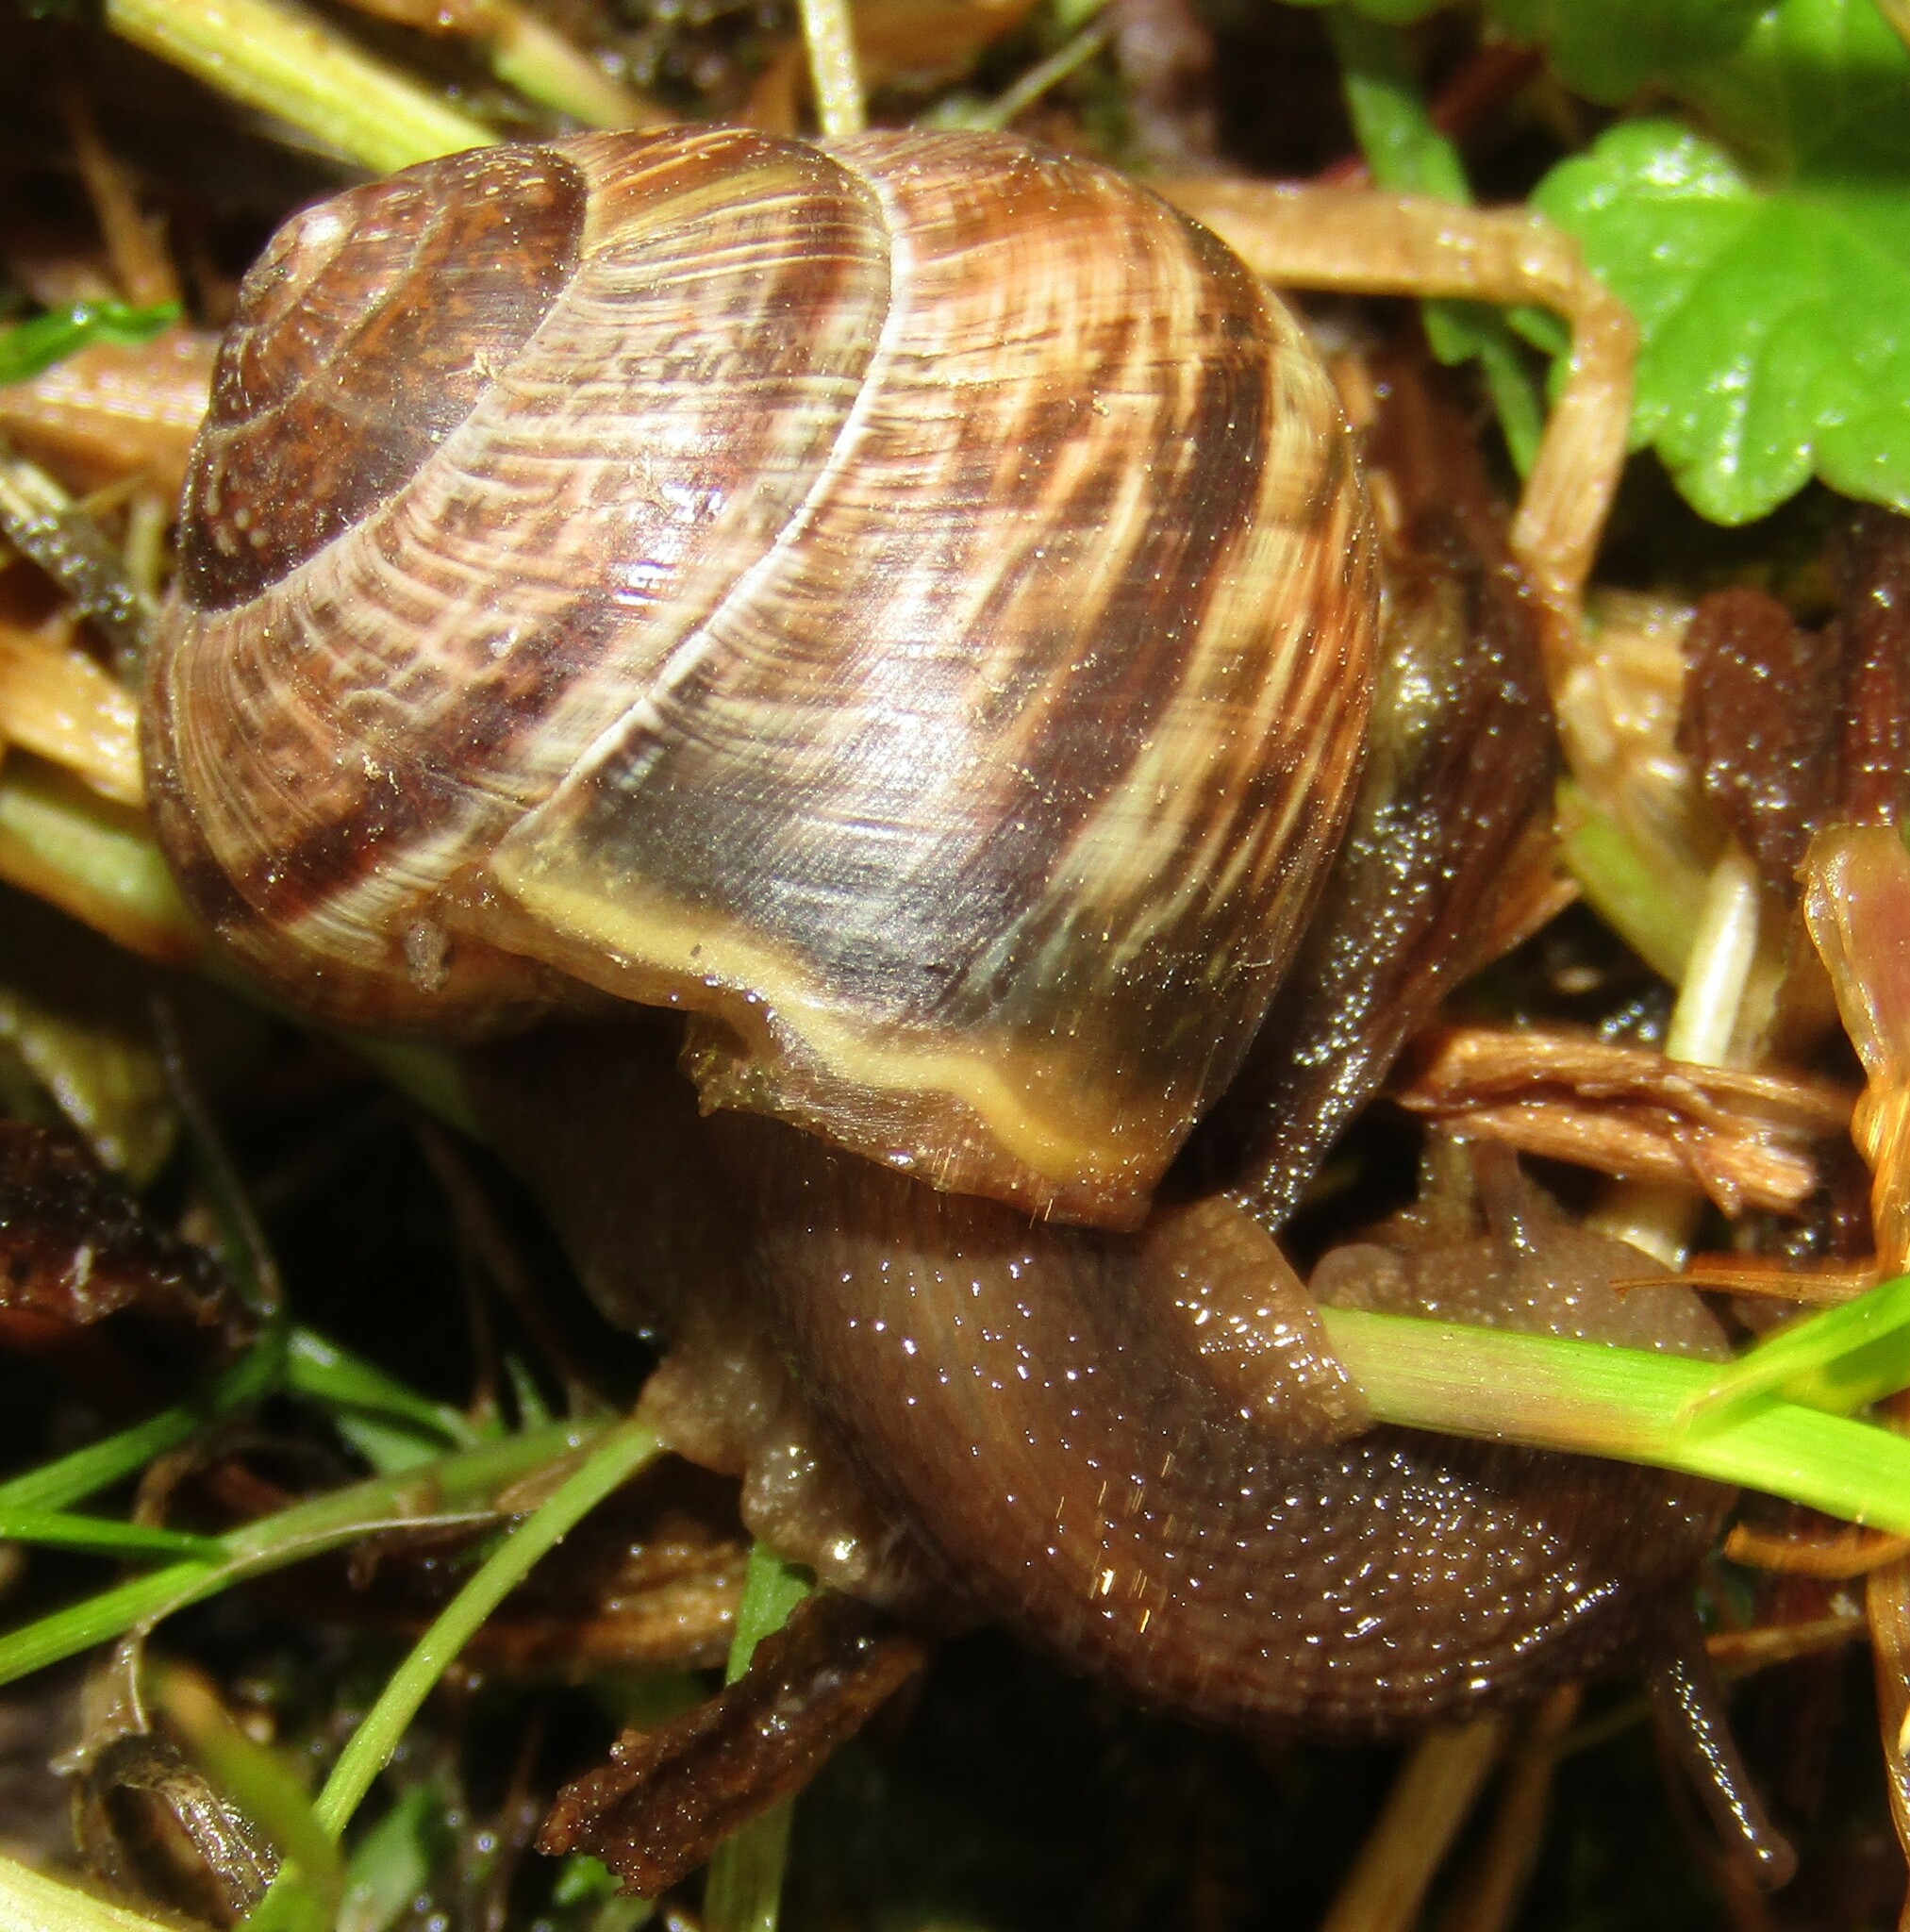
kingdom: Animalia
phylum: Mollusca
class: Gastropoda
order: Stylommatophora
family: Helicidae
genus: Arianta
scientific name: Arianta arbustorum
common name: Copse snail
